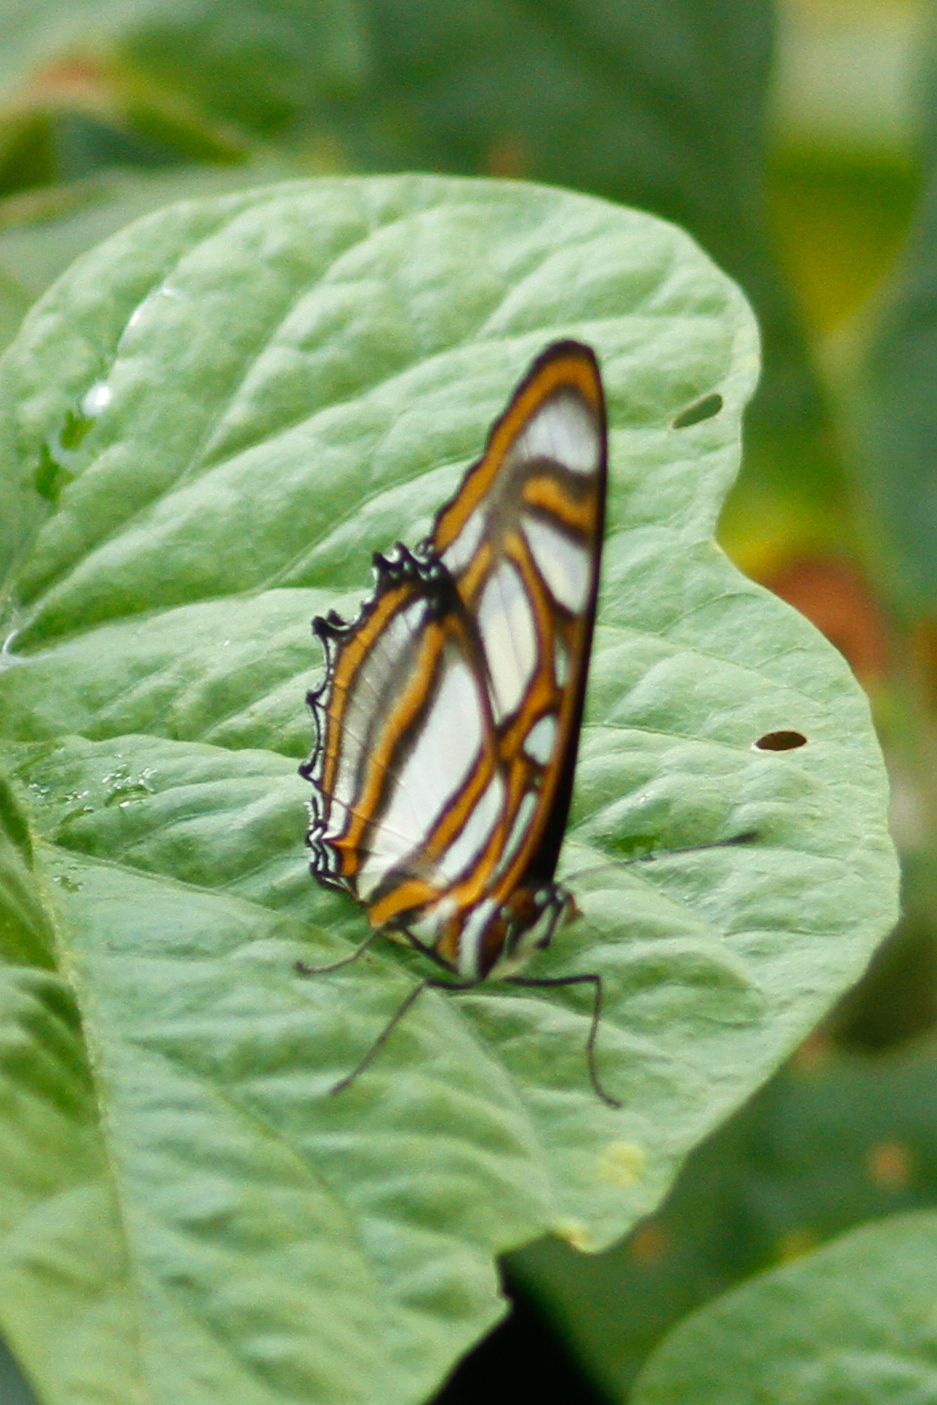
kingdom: Animalia
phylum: Arthropoda
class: Insecta
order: Lepidoptera
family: Nymphalidae
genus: Metamorpha
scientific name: Metamorpha elissa
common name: Elissa page
